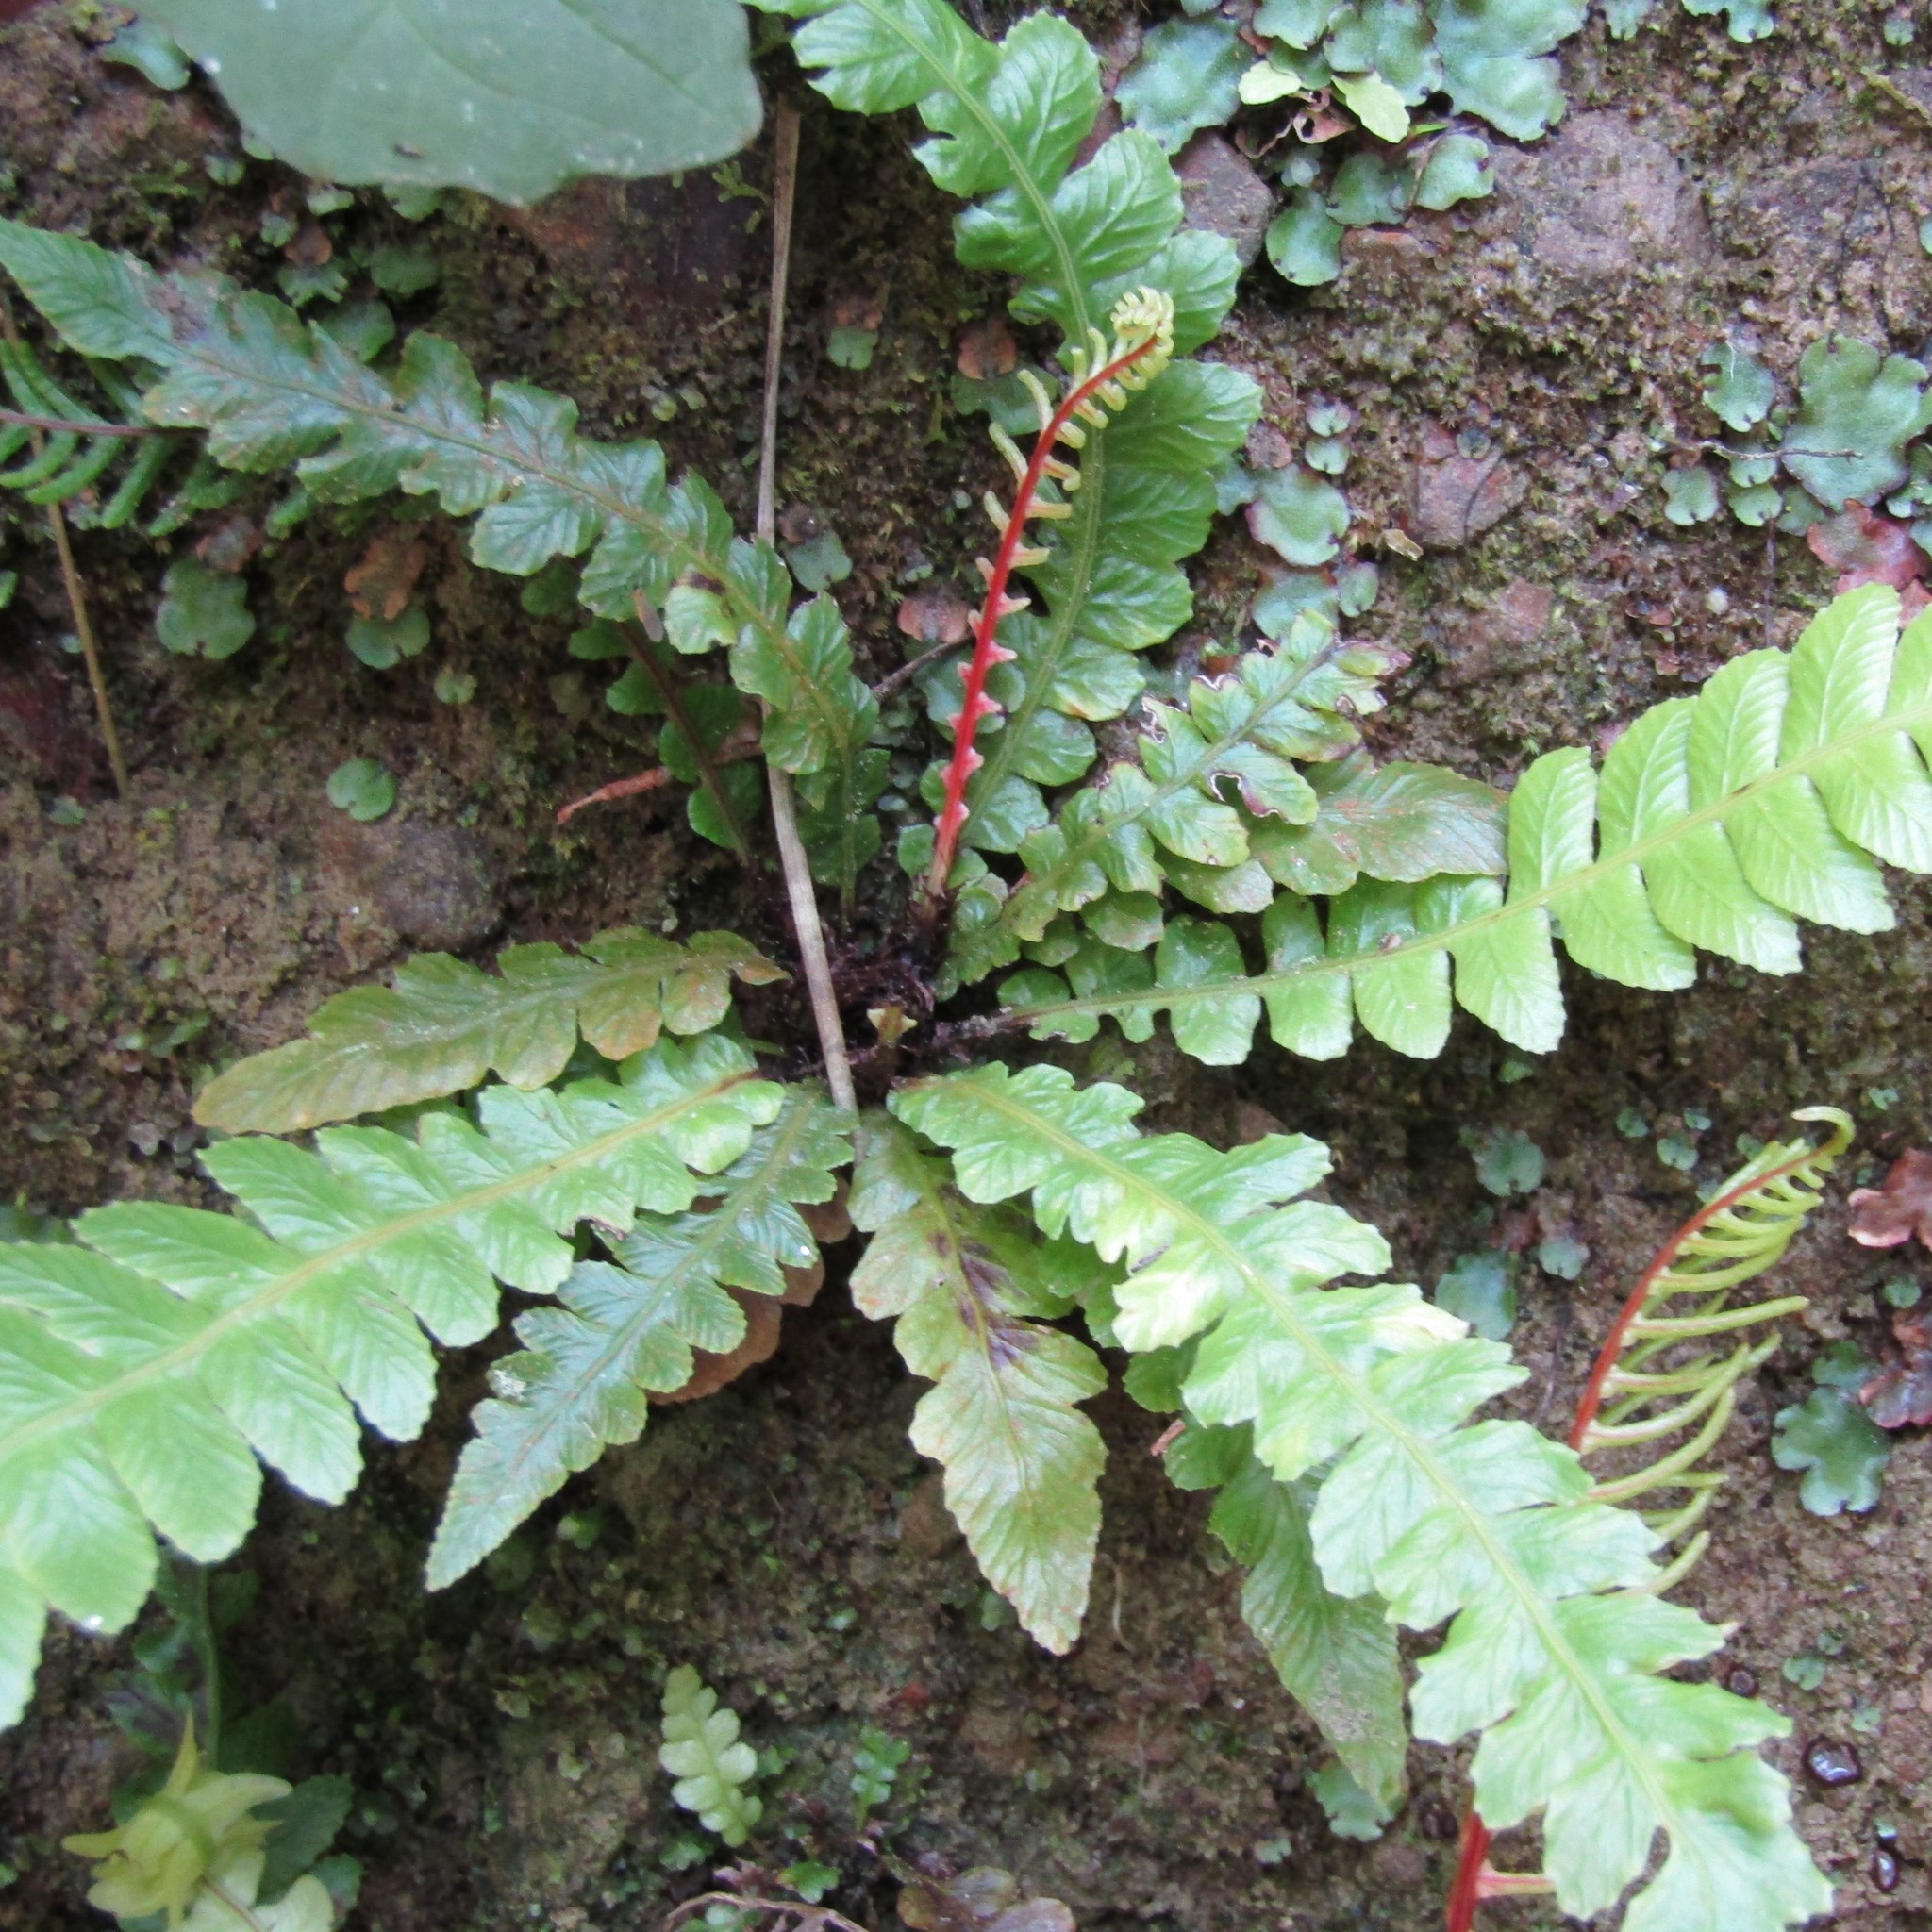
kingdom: Plantae
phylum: Tracheophyta
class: Polypodiopsida
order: Polypodiales
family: Blechnaceae
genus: Austroblechnum
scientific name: Austroblechnum lanceolatum
